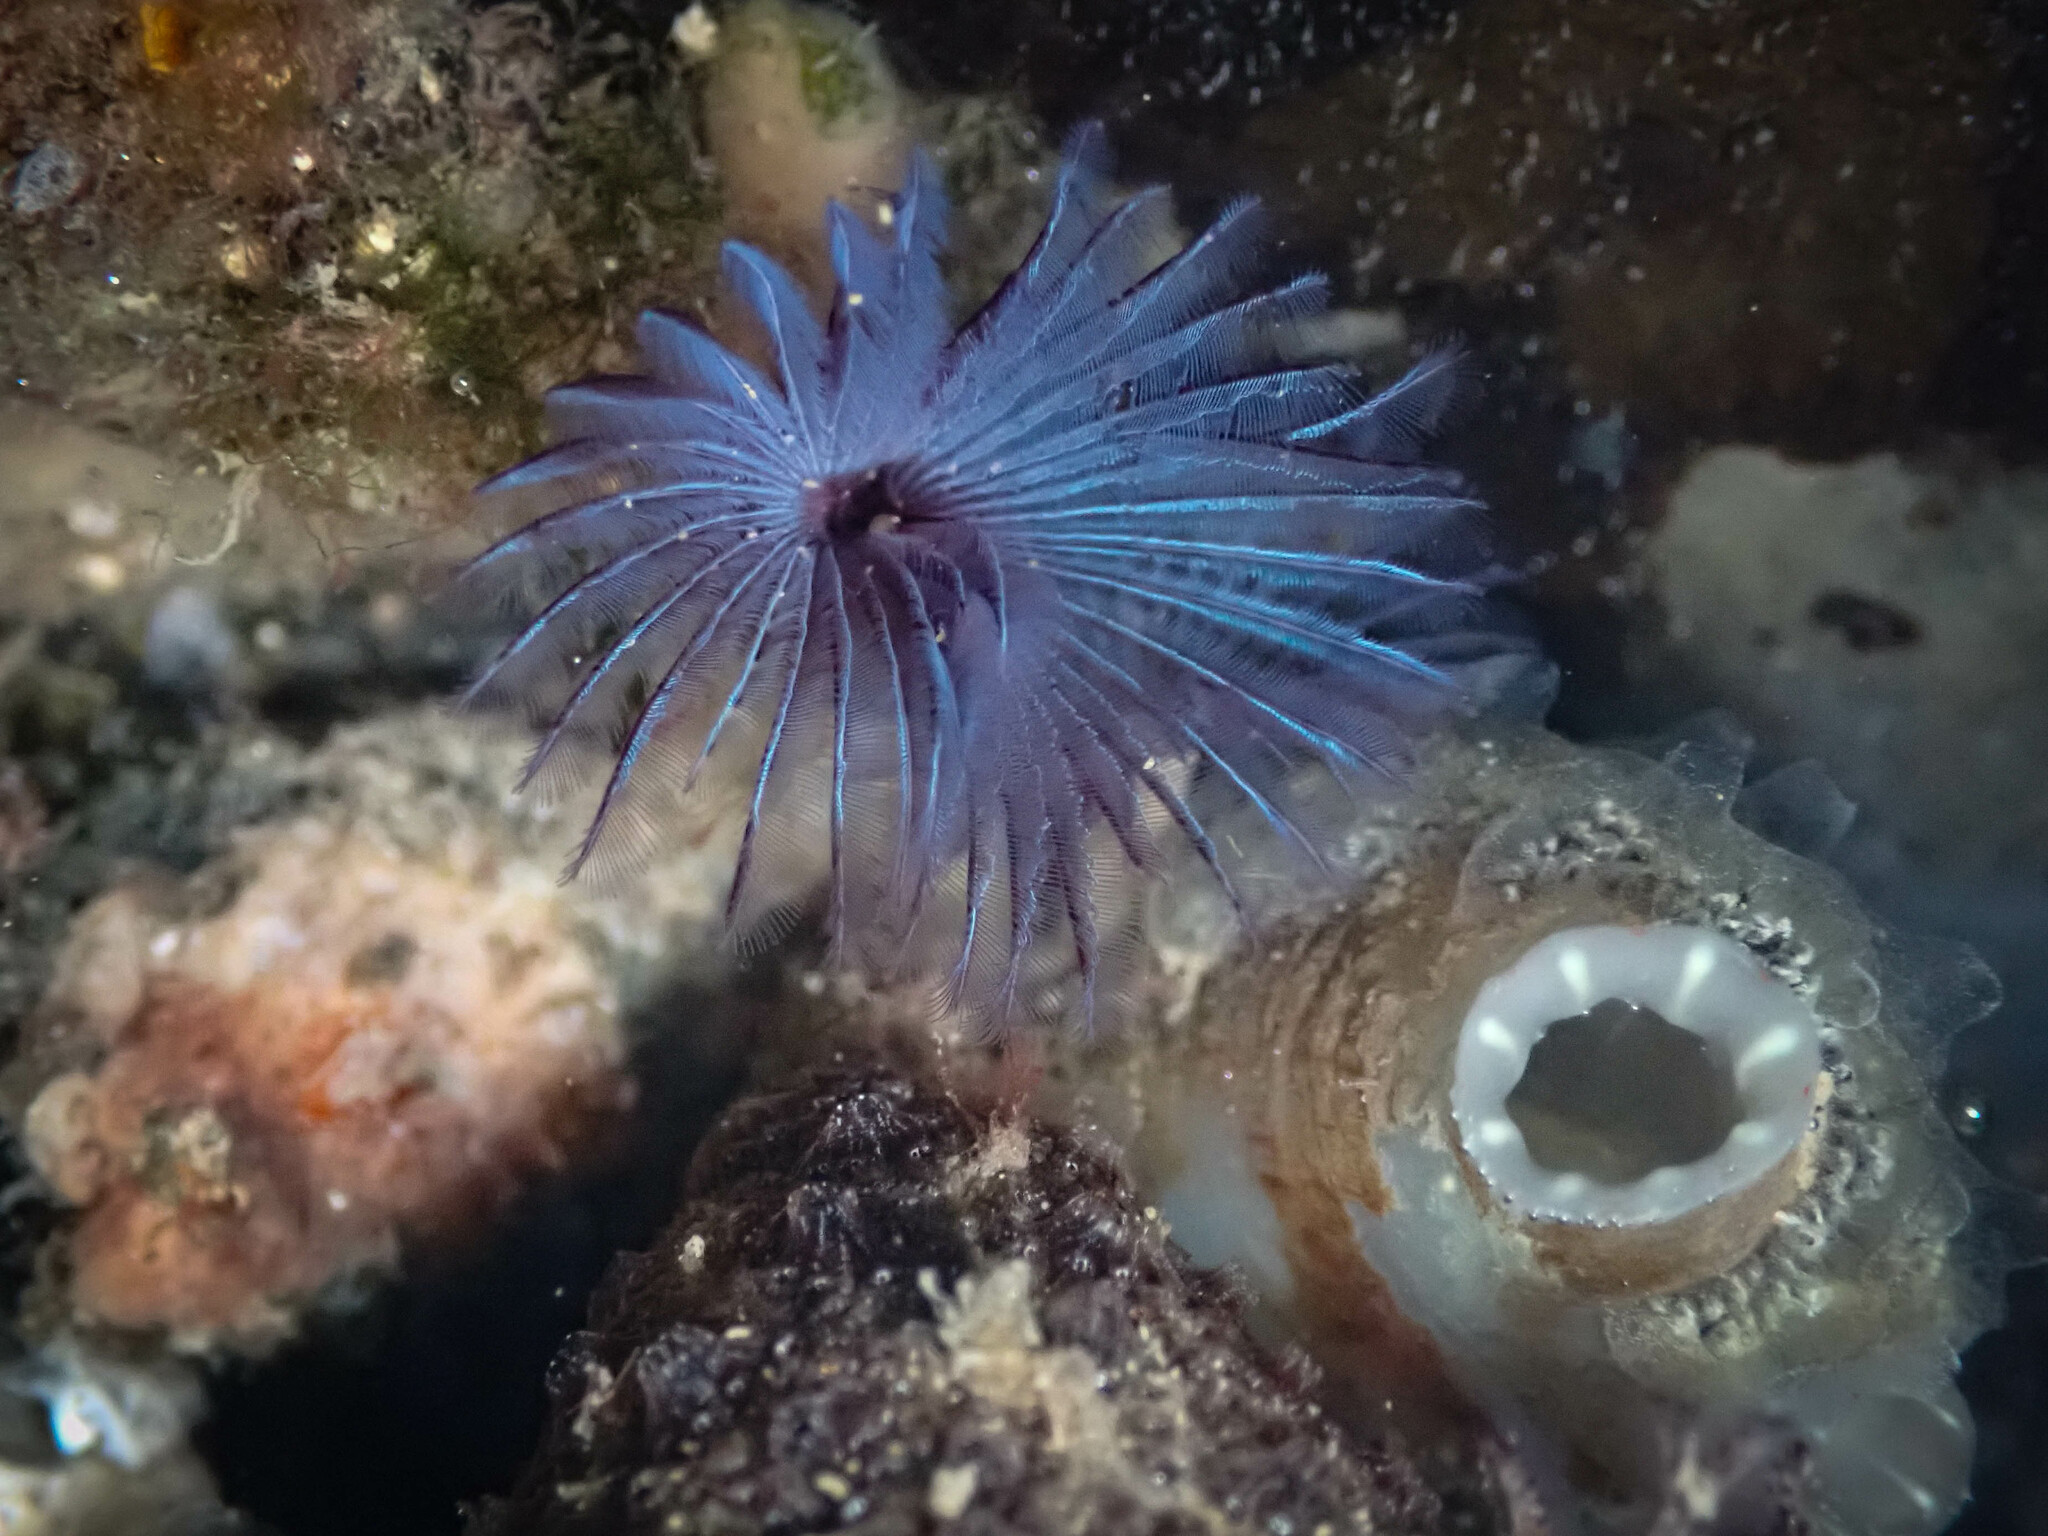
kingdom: Animalia
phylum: Annelida
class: Polychaeta
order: Sabellida
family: Sabellidae
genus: Bispira
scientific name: Bispira pacifica
